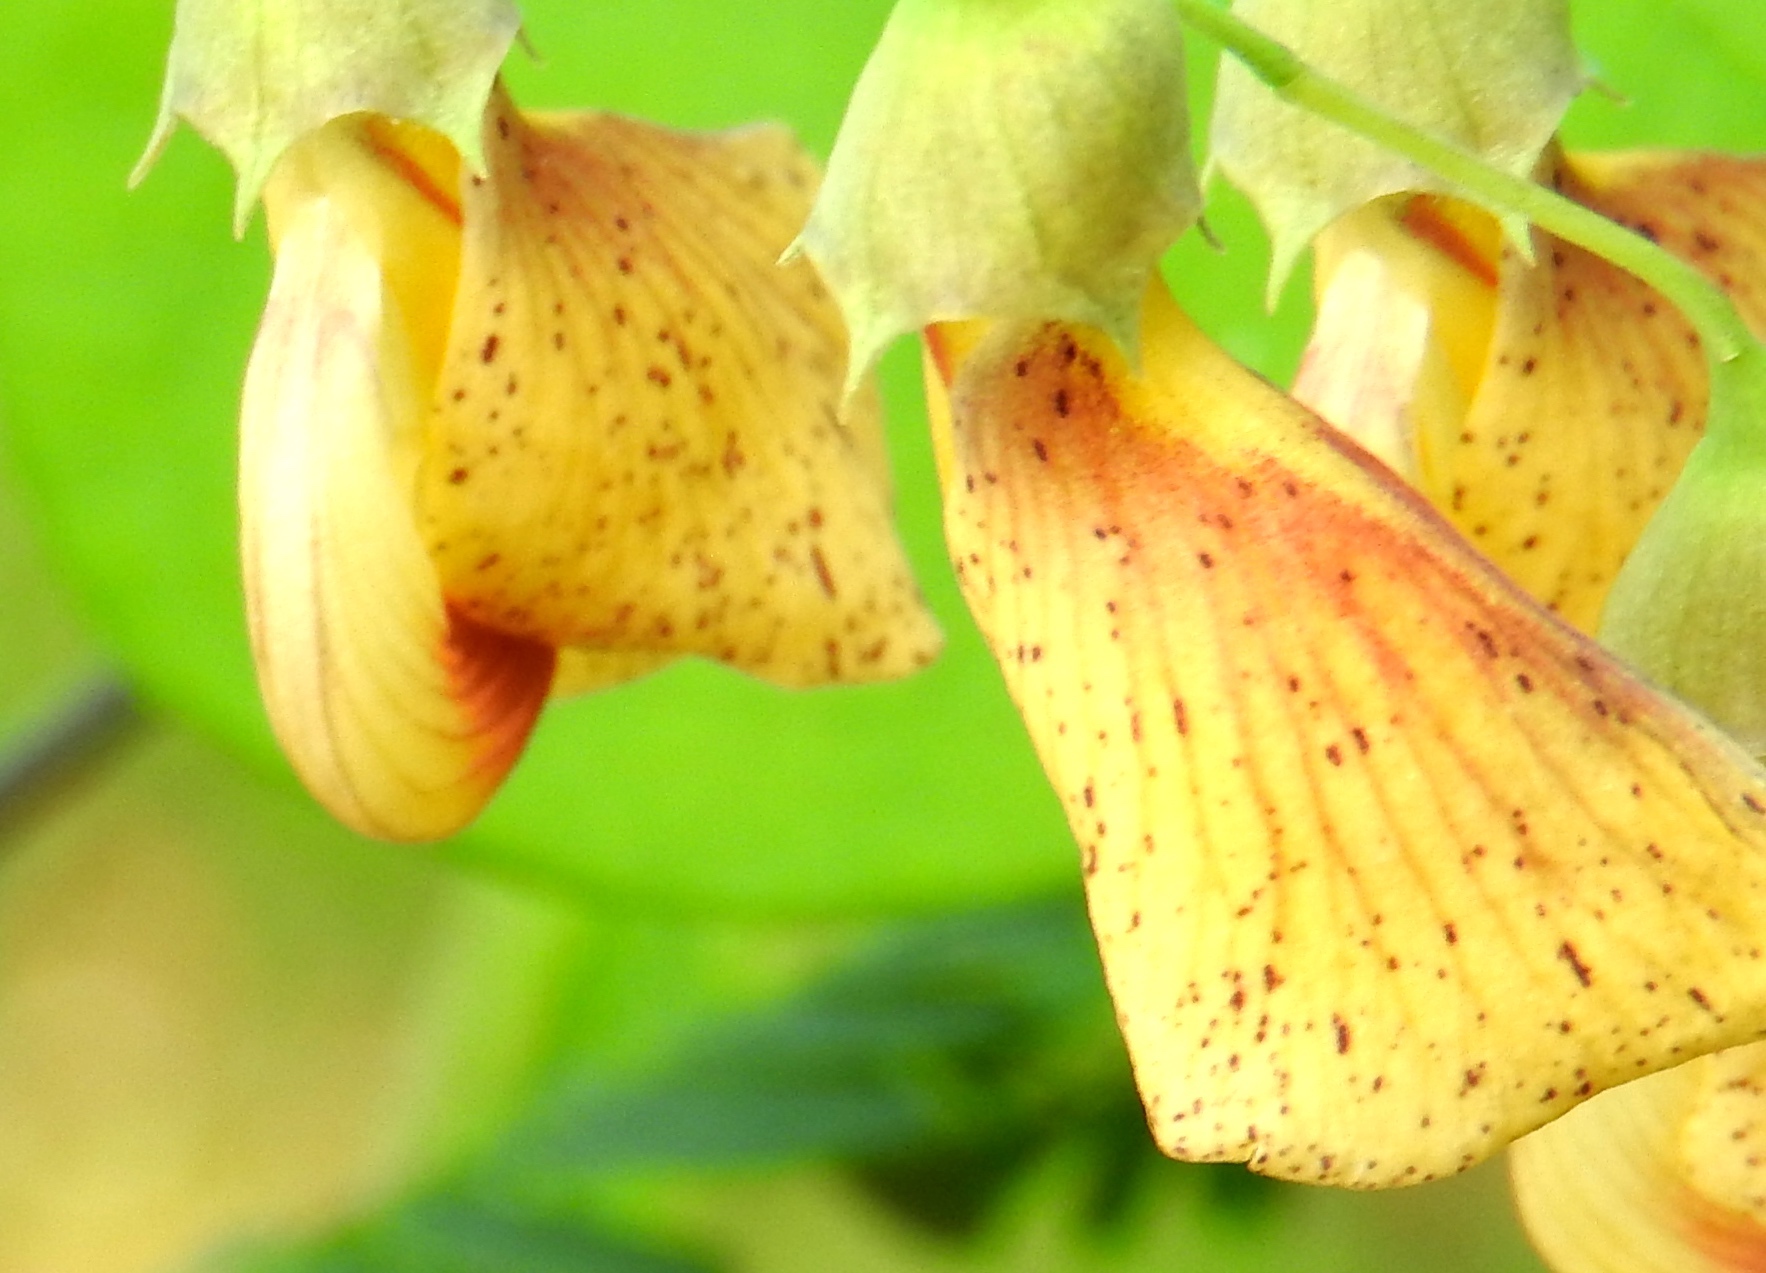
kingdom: Plantae
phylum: Tracheophyta
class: Magnoliopsida
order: Fabales
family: Fabaceae
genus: Sesbania
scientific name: Sesbania herbacea
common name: Bigpod sesbania
